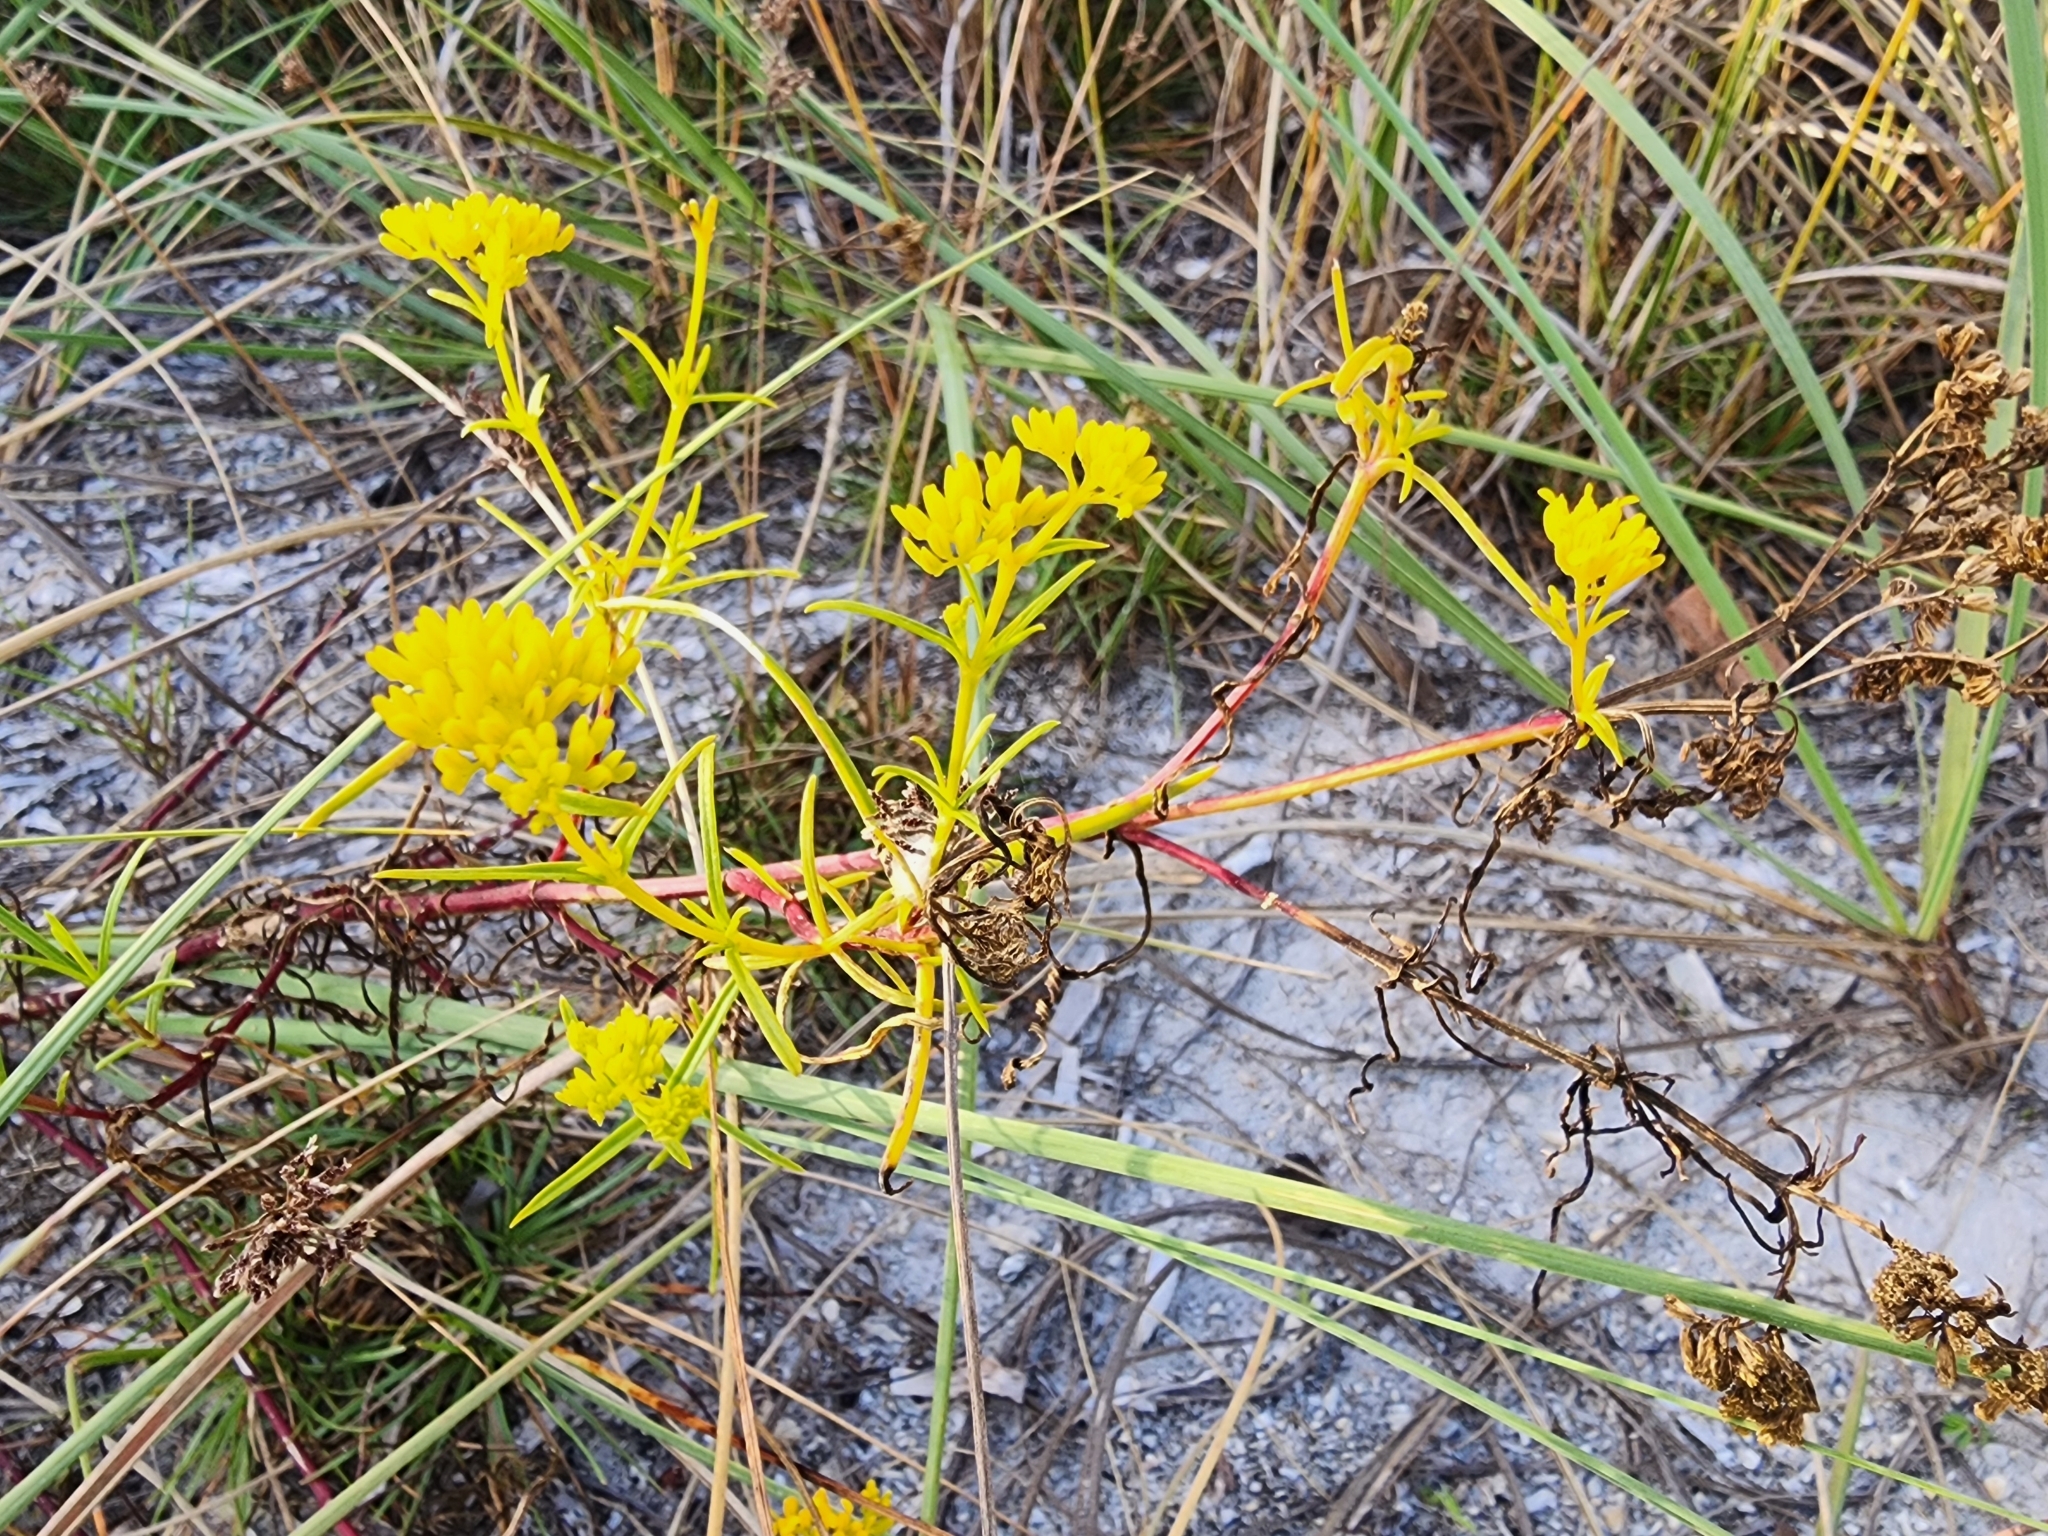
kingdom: Plantae
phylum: Tracheophyta
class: Magnoliopsida
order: Asterales
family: Asteraceae
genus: Flaveria
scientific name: Flaveria linearis
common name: Yellowtop
